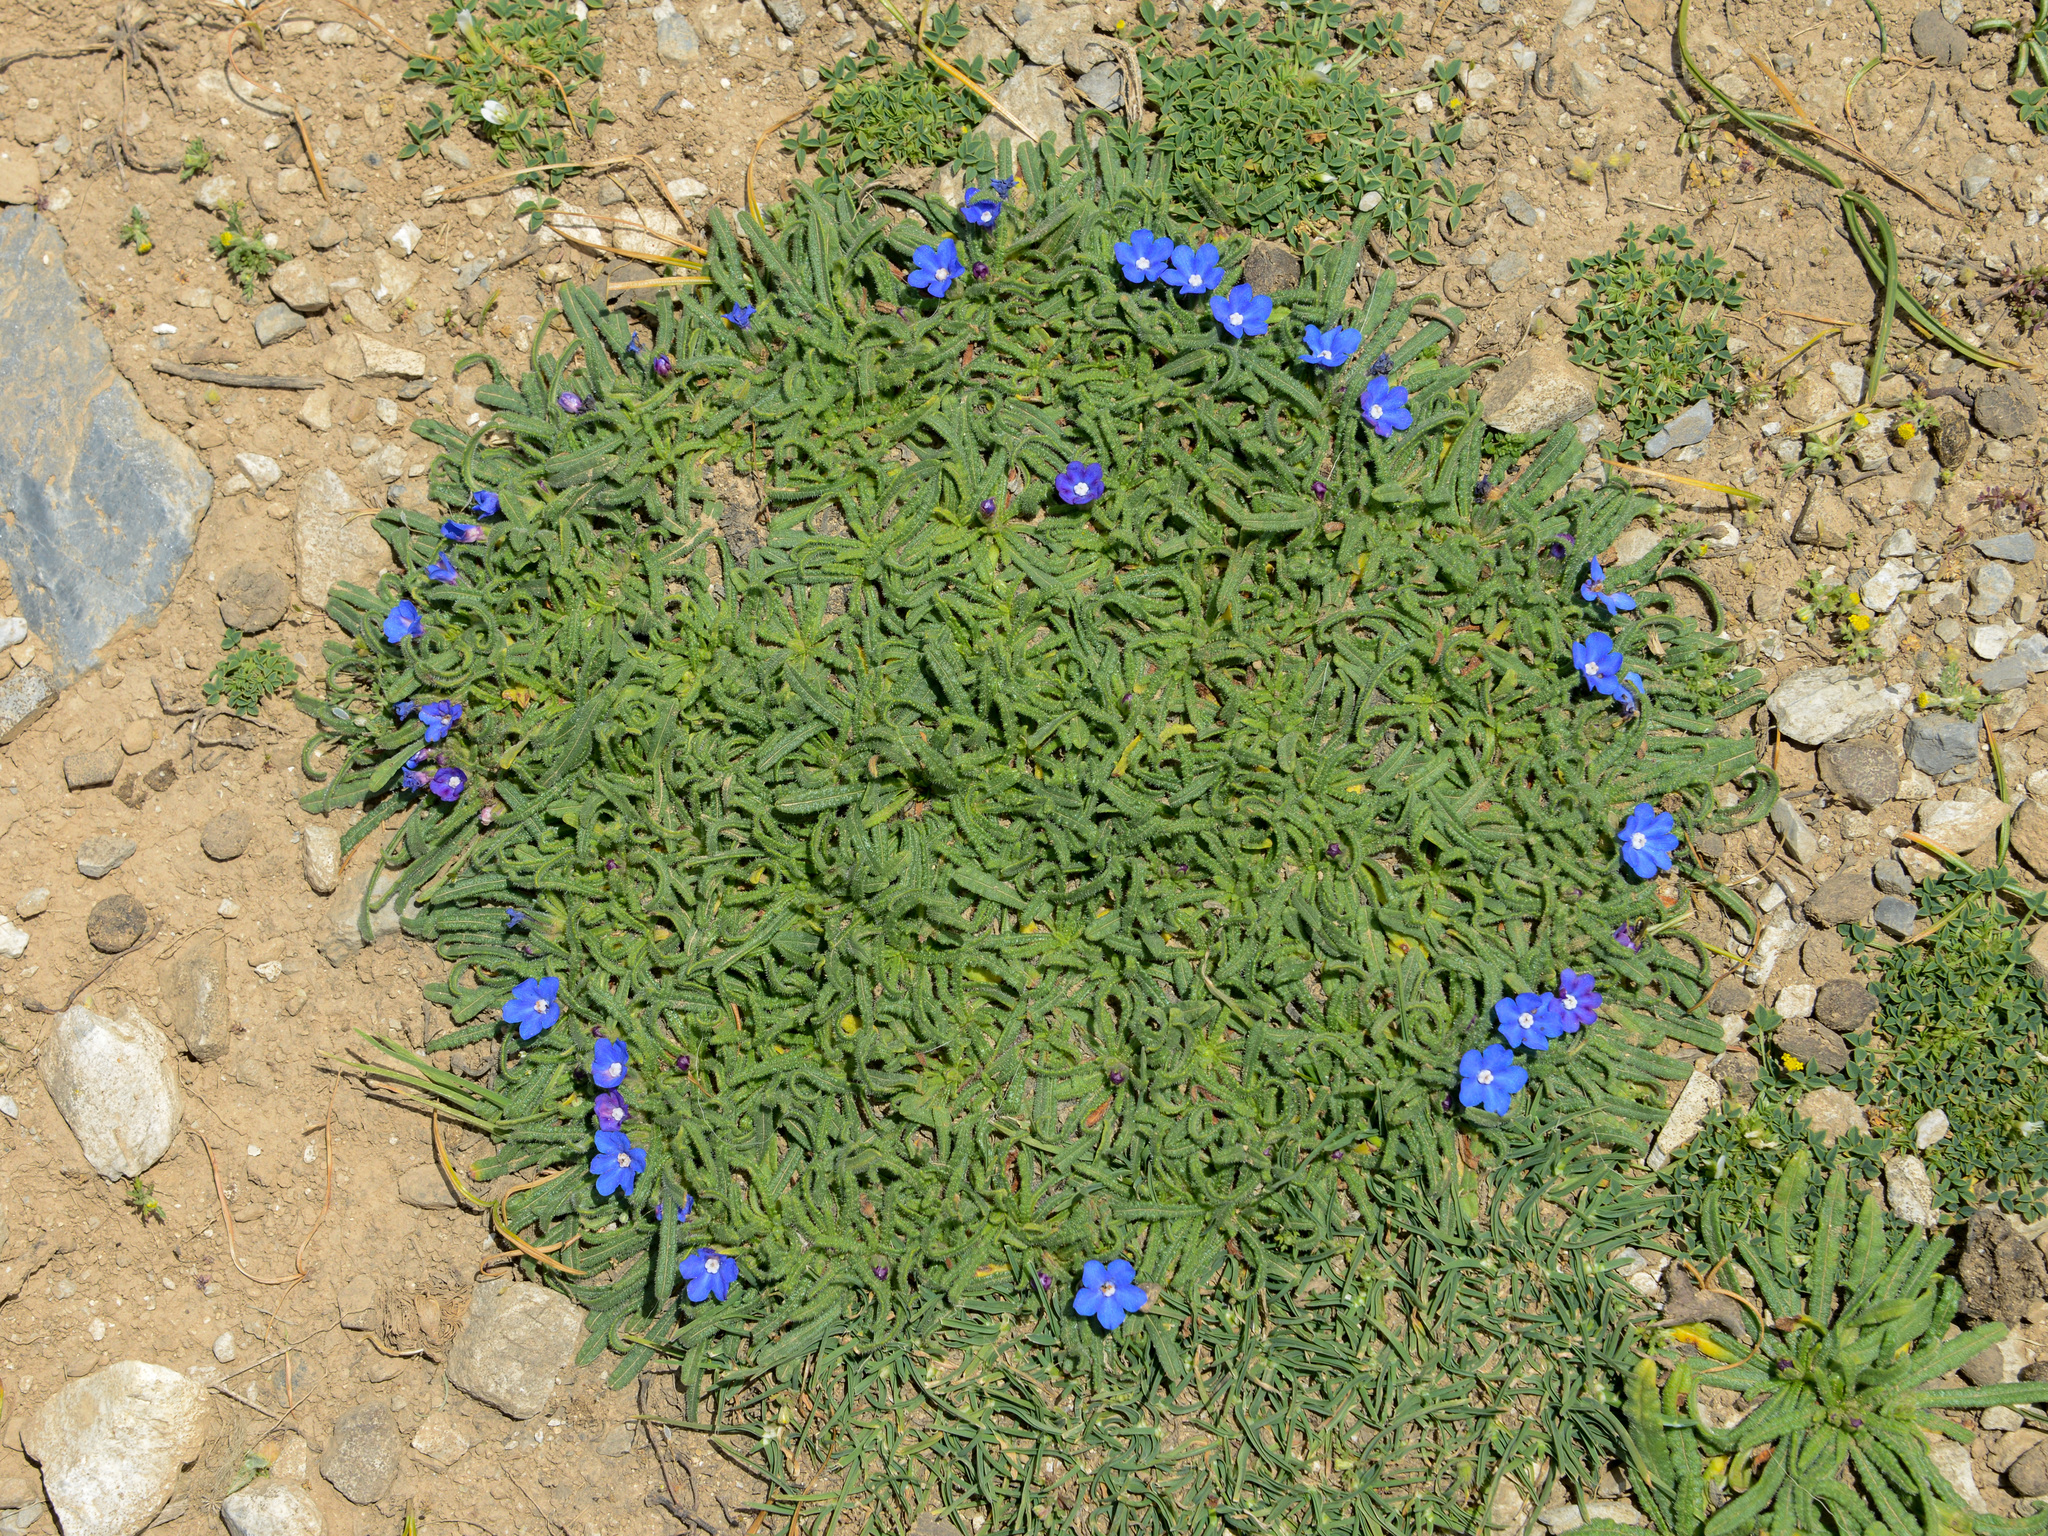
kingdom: Plantae
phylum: Tracheophyta
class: Magnoliopsida
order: Boraginales
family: Boraginaceae
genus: Anchusa
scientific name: Anchusa cespitosa
